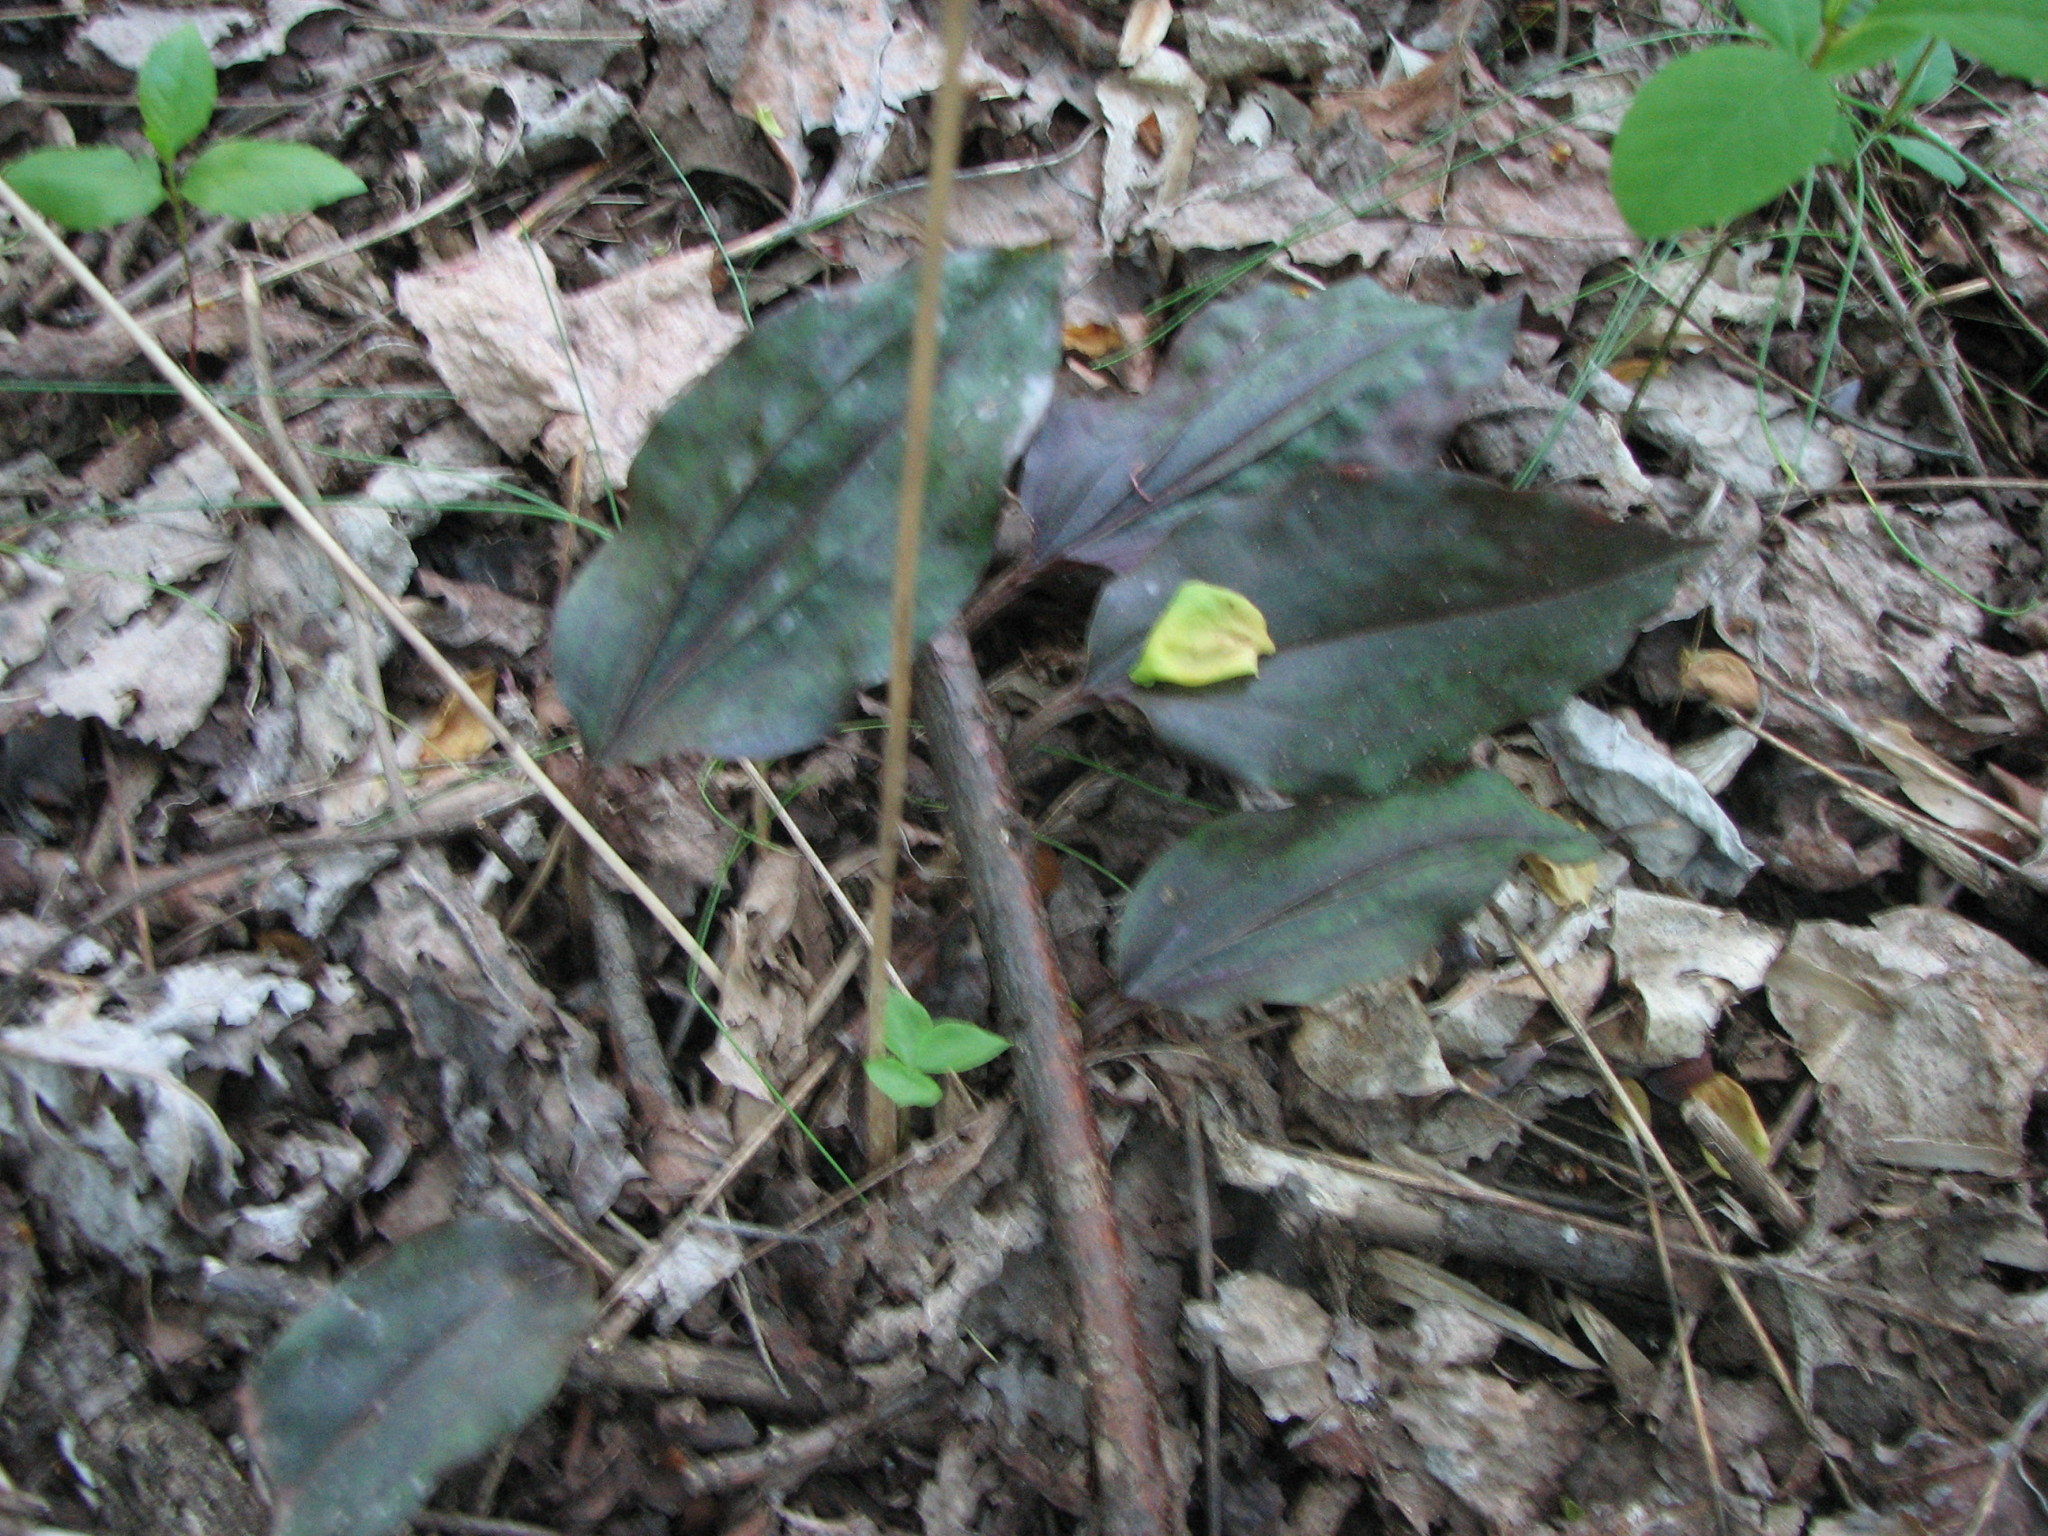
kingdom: Plantae
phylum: Tracheophyta
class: Liliopsida
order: Asparagales
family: Orchidaceae
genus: Tipularia
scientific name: Tipularia discolor
